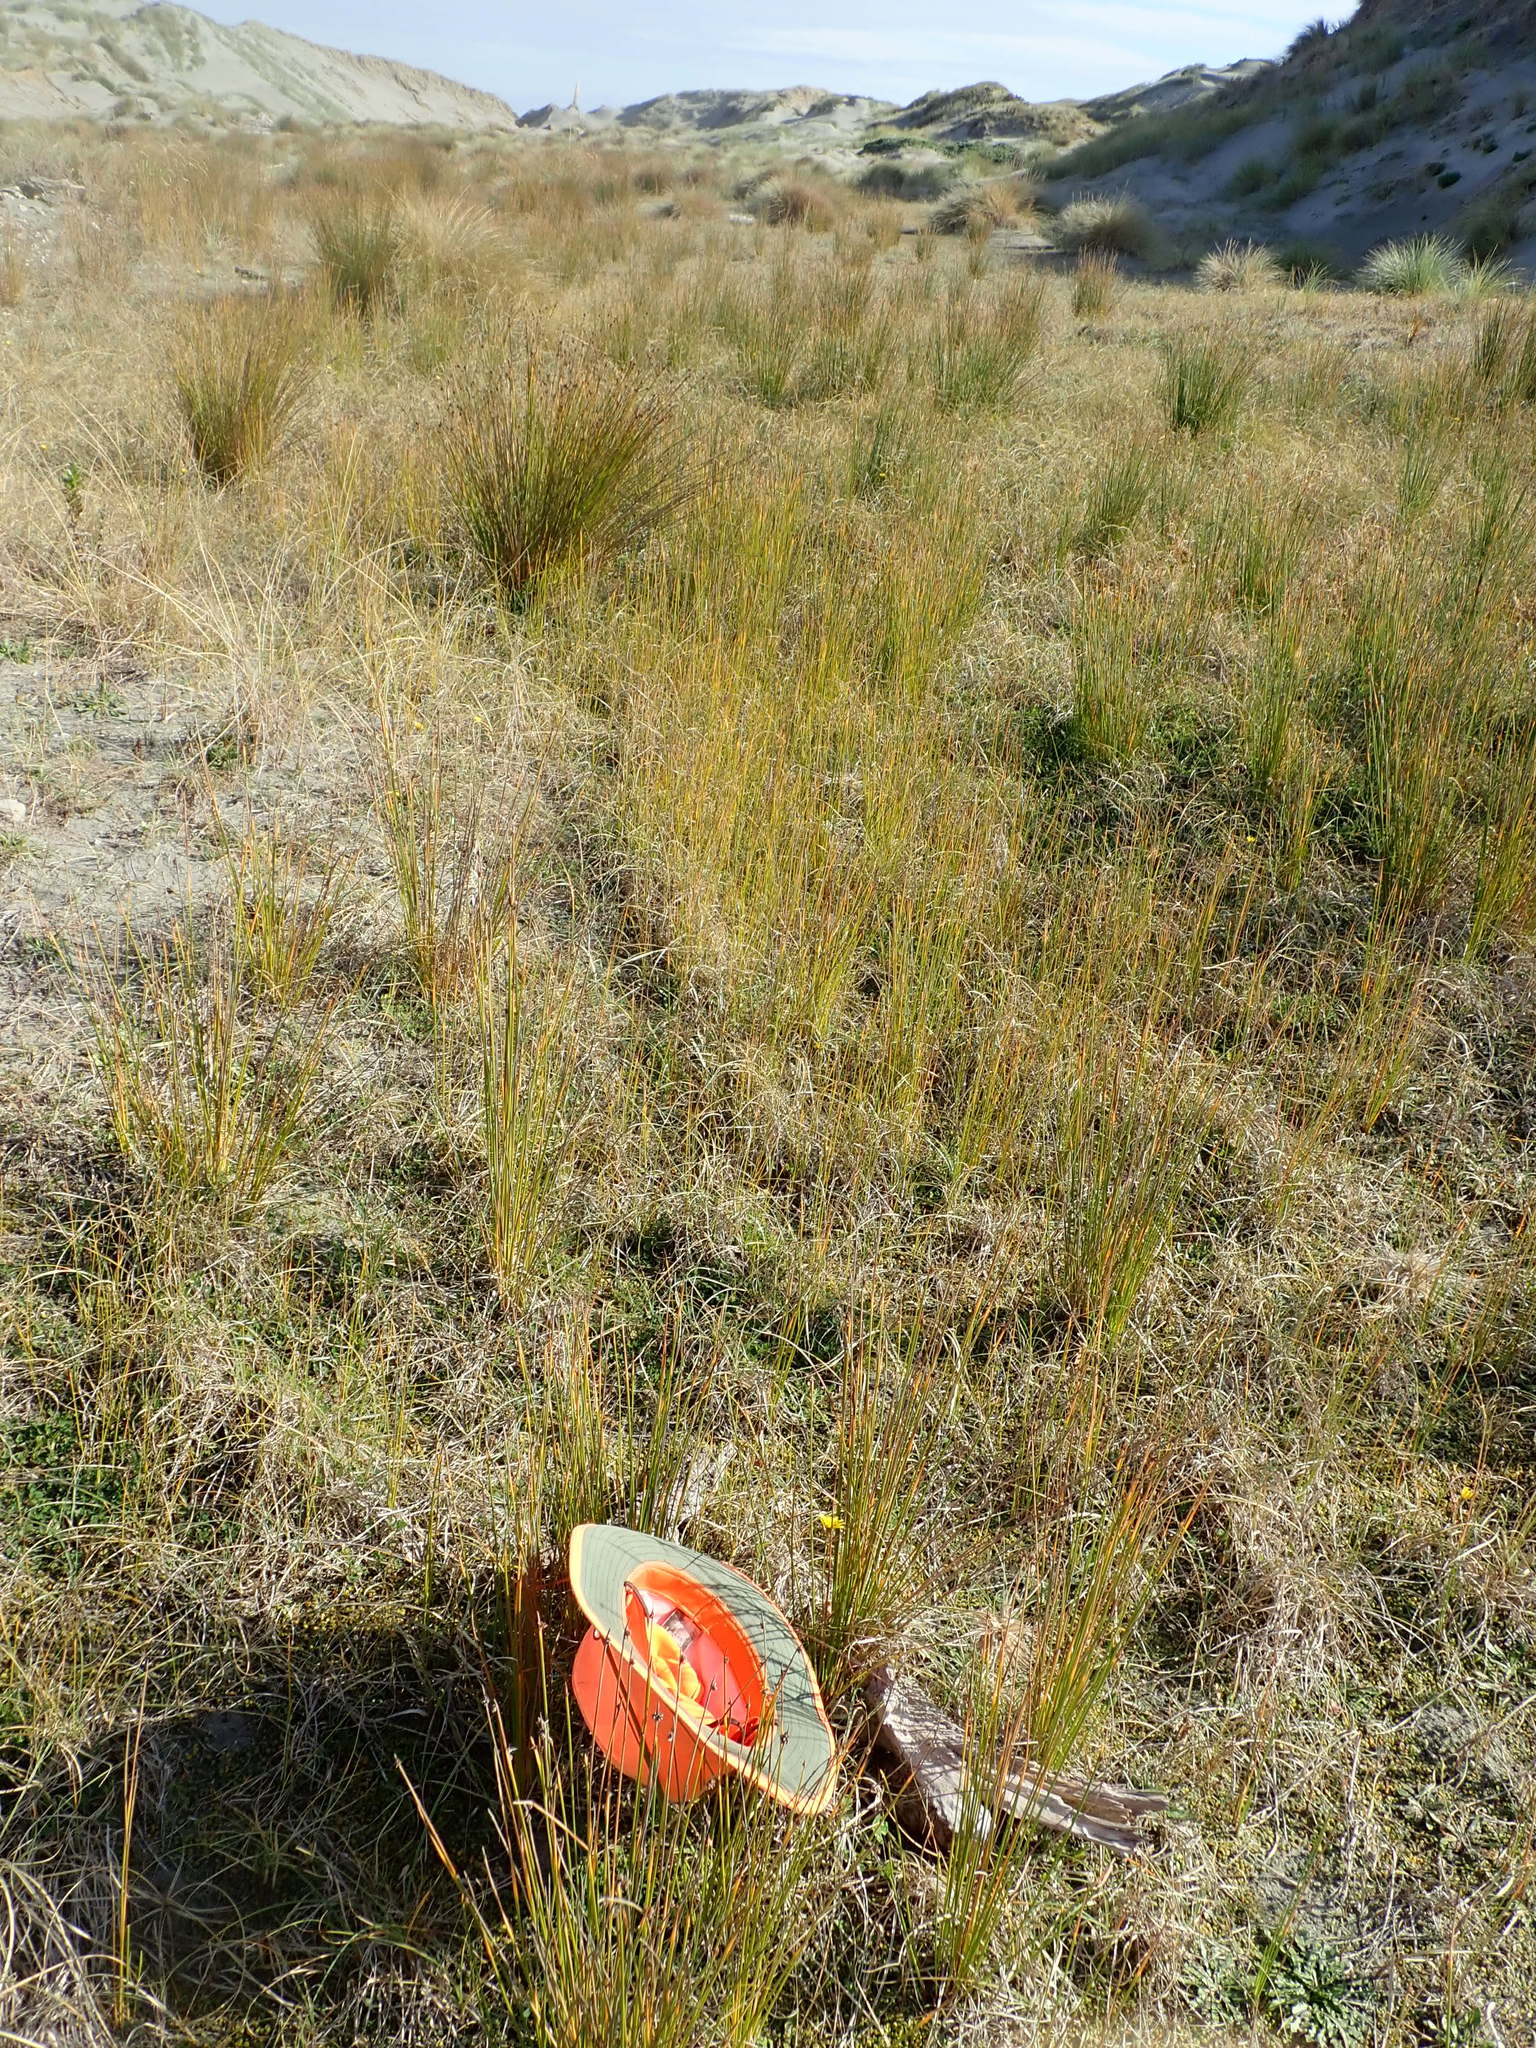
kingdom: Animalia
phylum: Arthropoda
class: Malacostraca
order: Isopoda
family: Porcellionidae
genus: Porcellio
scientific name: Porcellio scaber
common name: Common rough woodlouse
